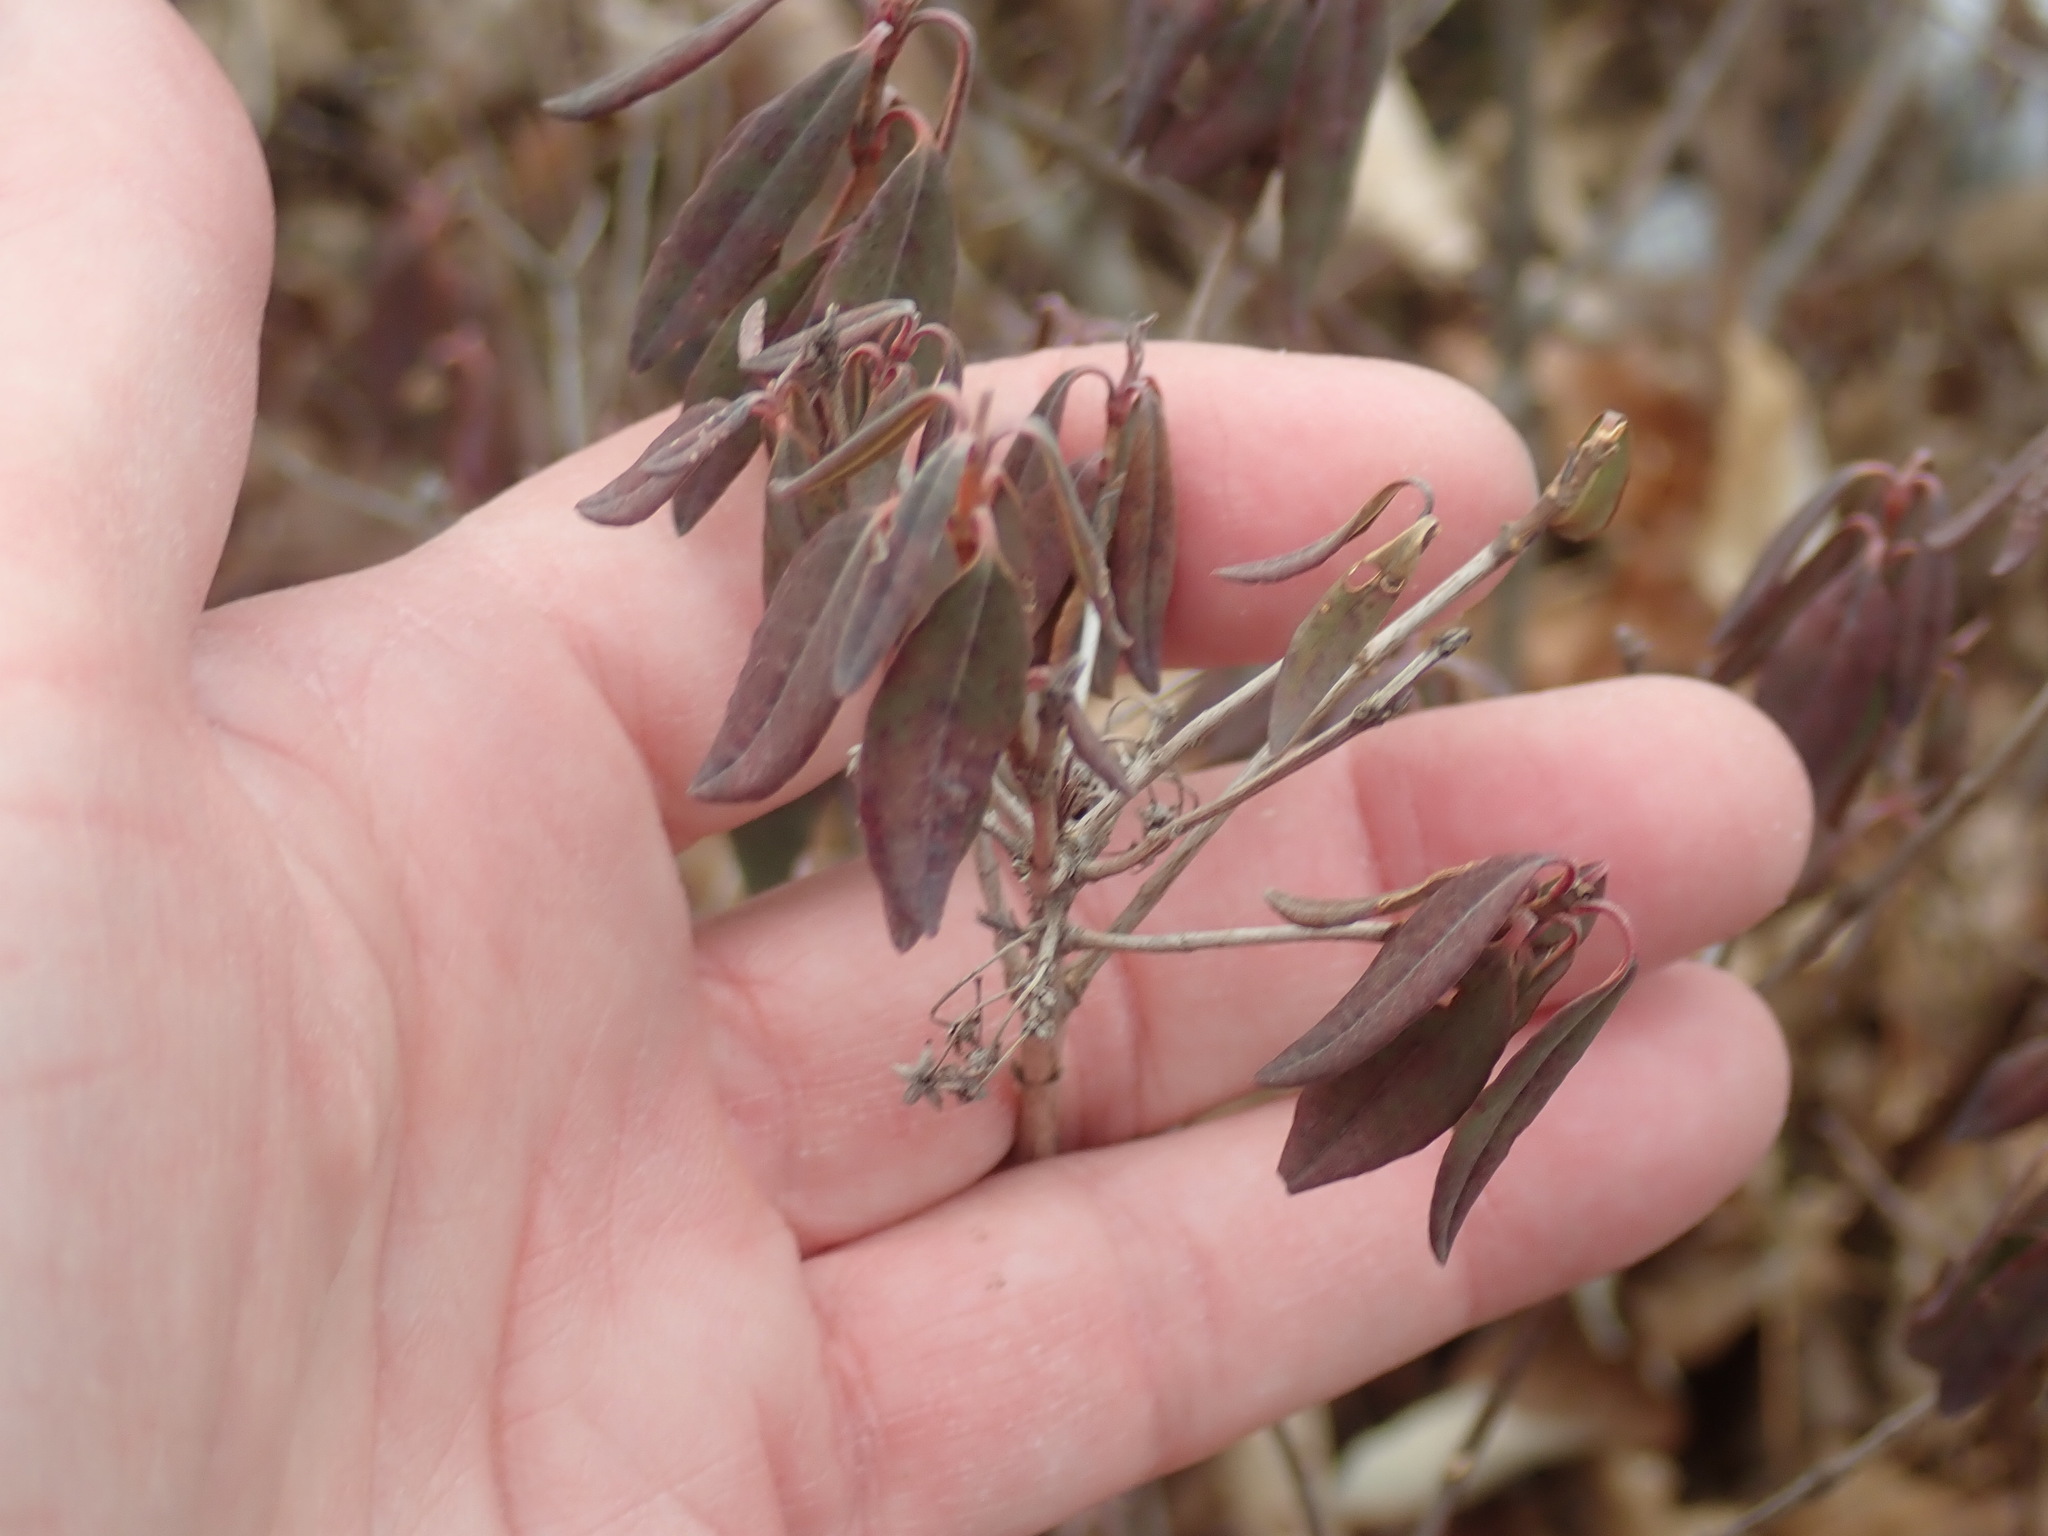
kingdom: Plantae
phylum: Tracheophyta
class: Magnoliopsida
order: Ericales
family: Ericaceae
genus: Kalmia
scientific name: Kalmia angustifolia
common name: Sheep-laurel
